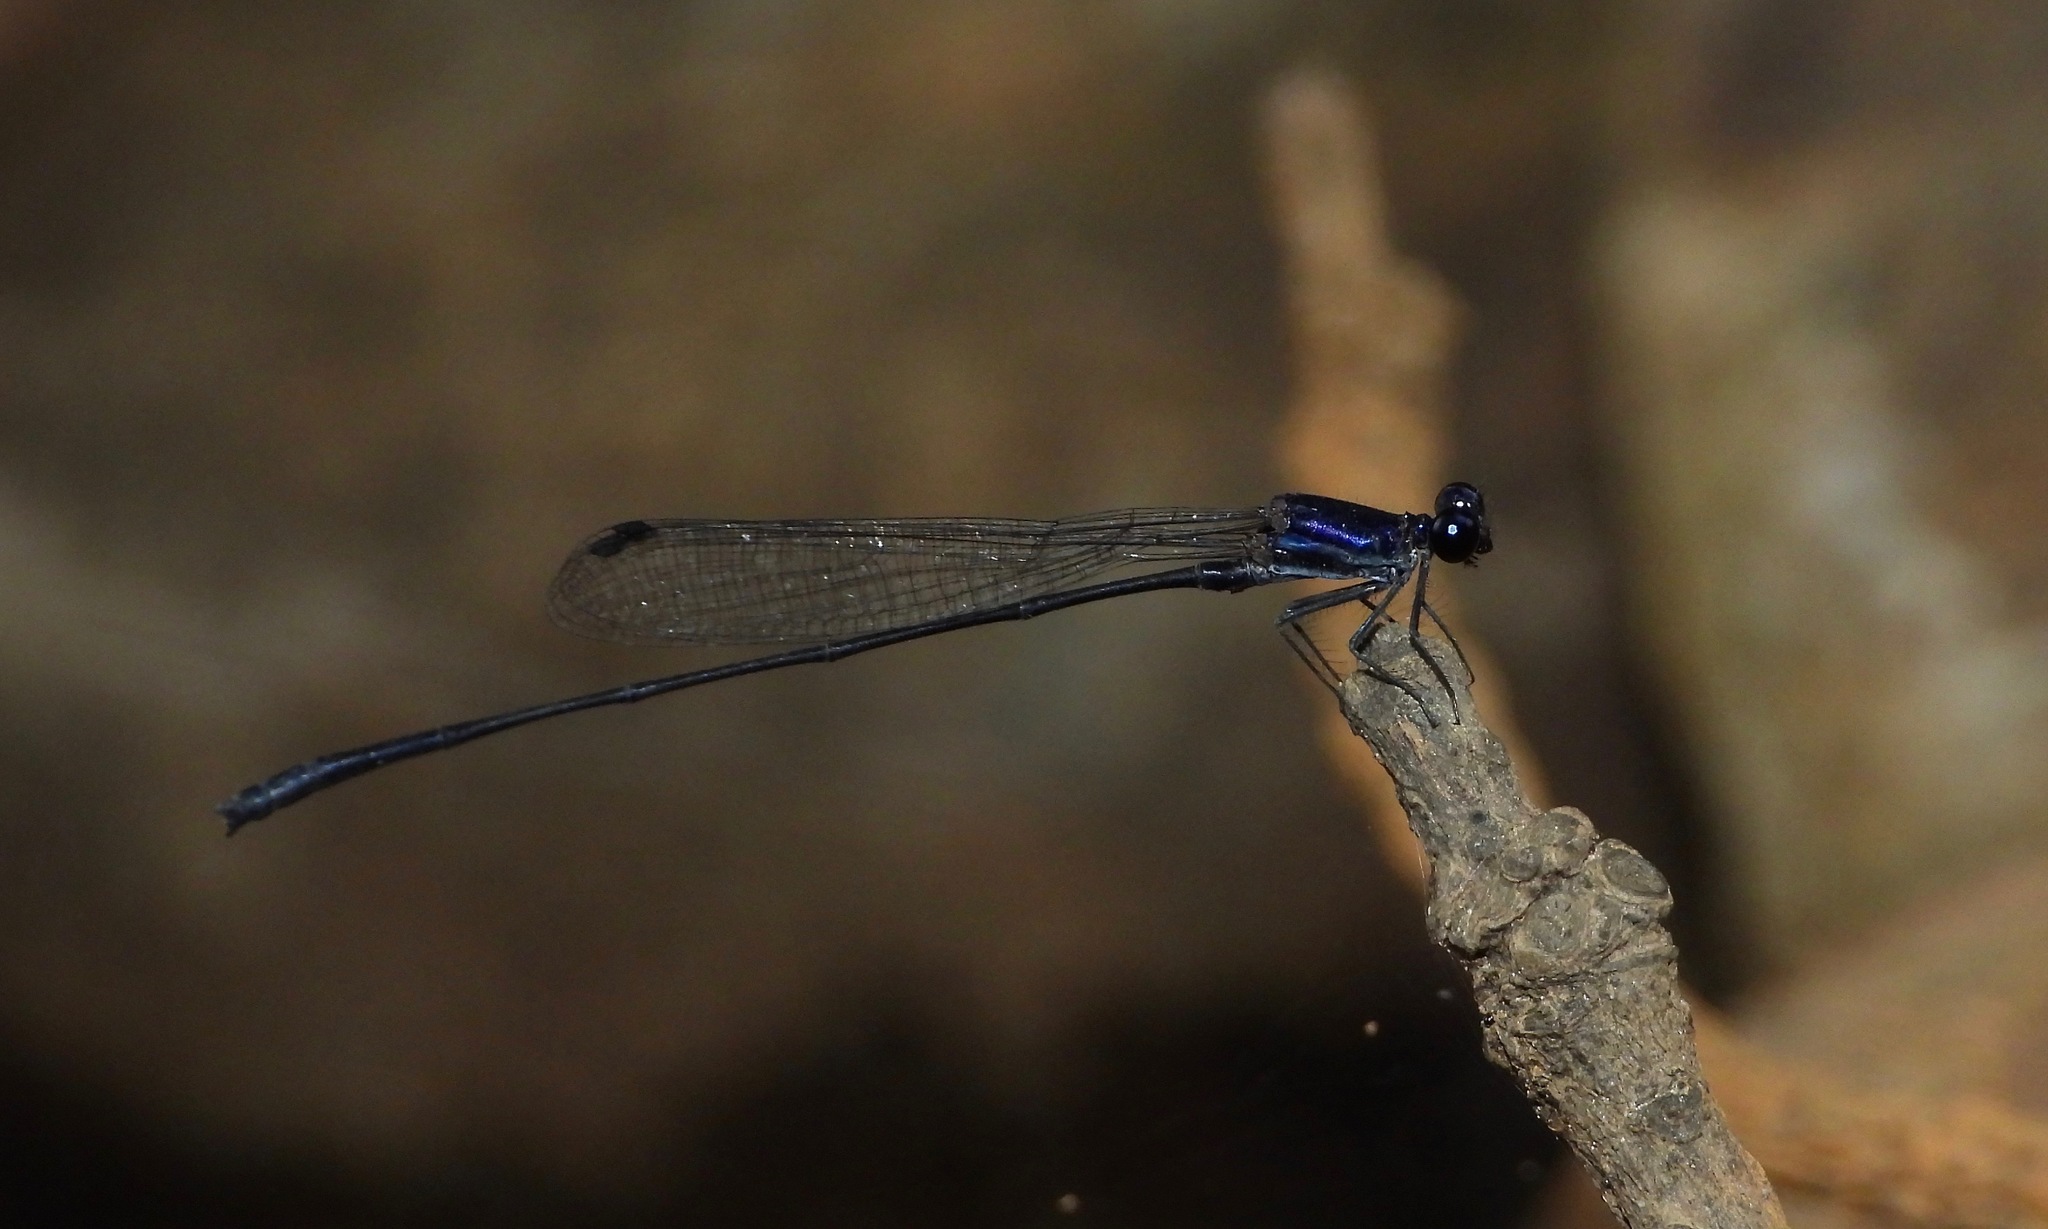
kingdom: Animalia
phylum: Arthropoda
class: Insecta
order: Odonata
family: Platycnemididae
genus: Elattoneura
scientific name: Elattoneura centralis
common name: Dark-glittering threadtail
